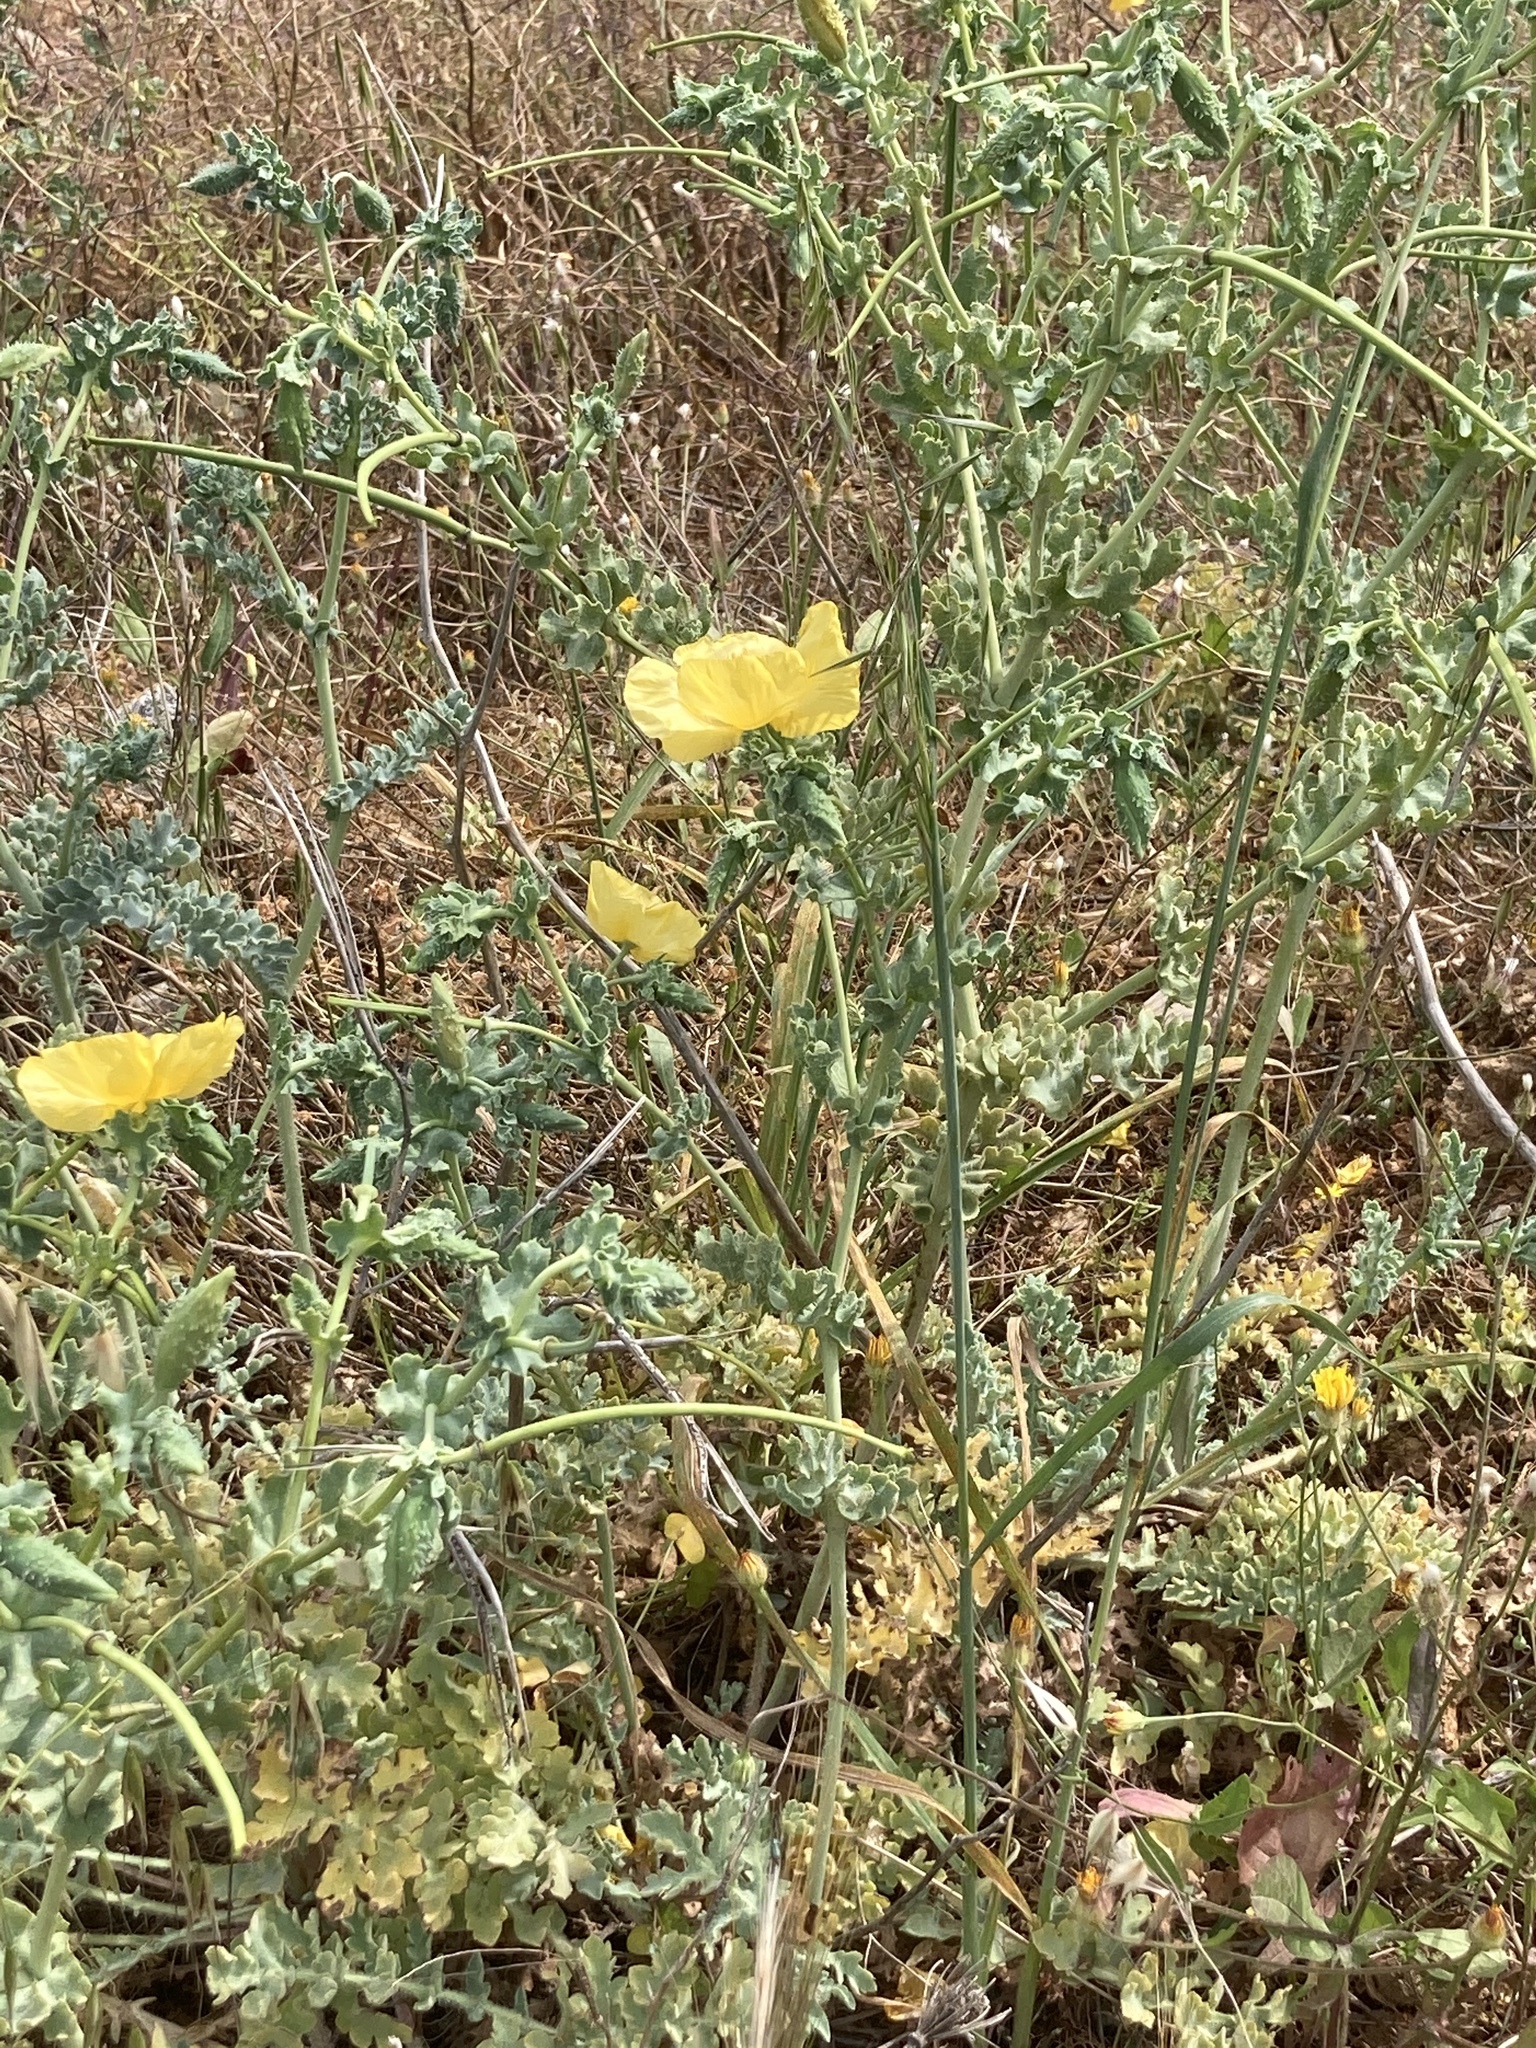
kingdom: Plantae
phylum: Tracheophyta
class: Magnoliopsida
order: Ranunculales
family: Papaveraceae
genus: Glaucium
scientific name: Glaucium flavum
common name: Yellow horned-poppy
